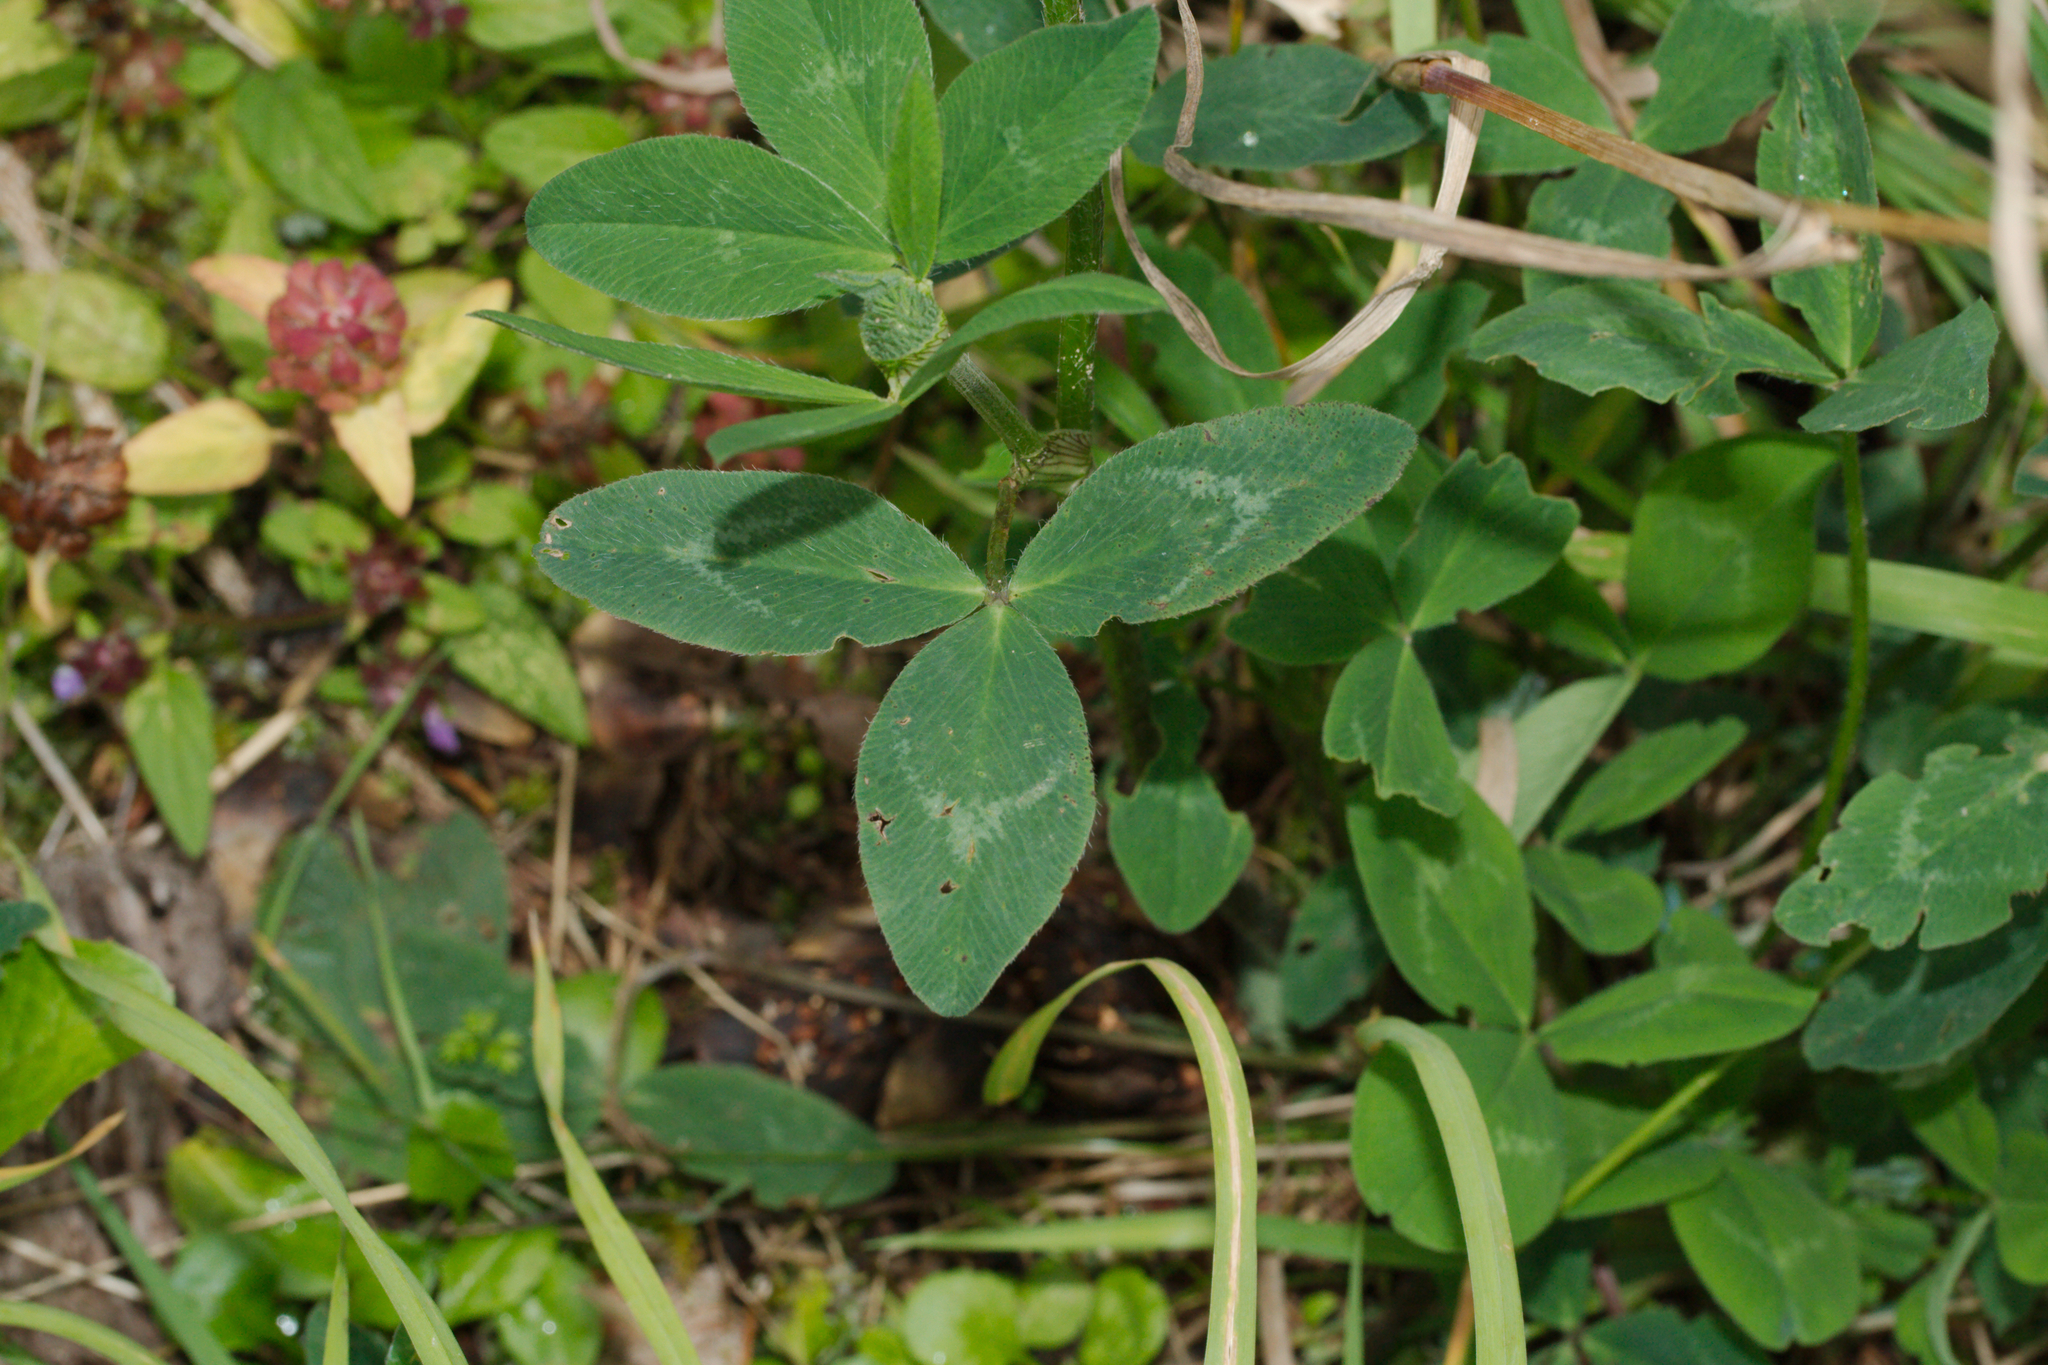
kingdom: Plantae
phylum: Tracheophyta
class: Magnoliopsida
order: Fabales
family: Fabaceae
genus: Trifolium
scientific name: Trifolium pratense
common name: Red clover
